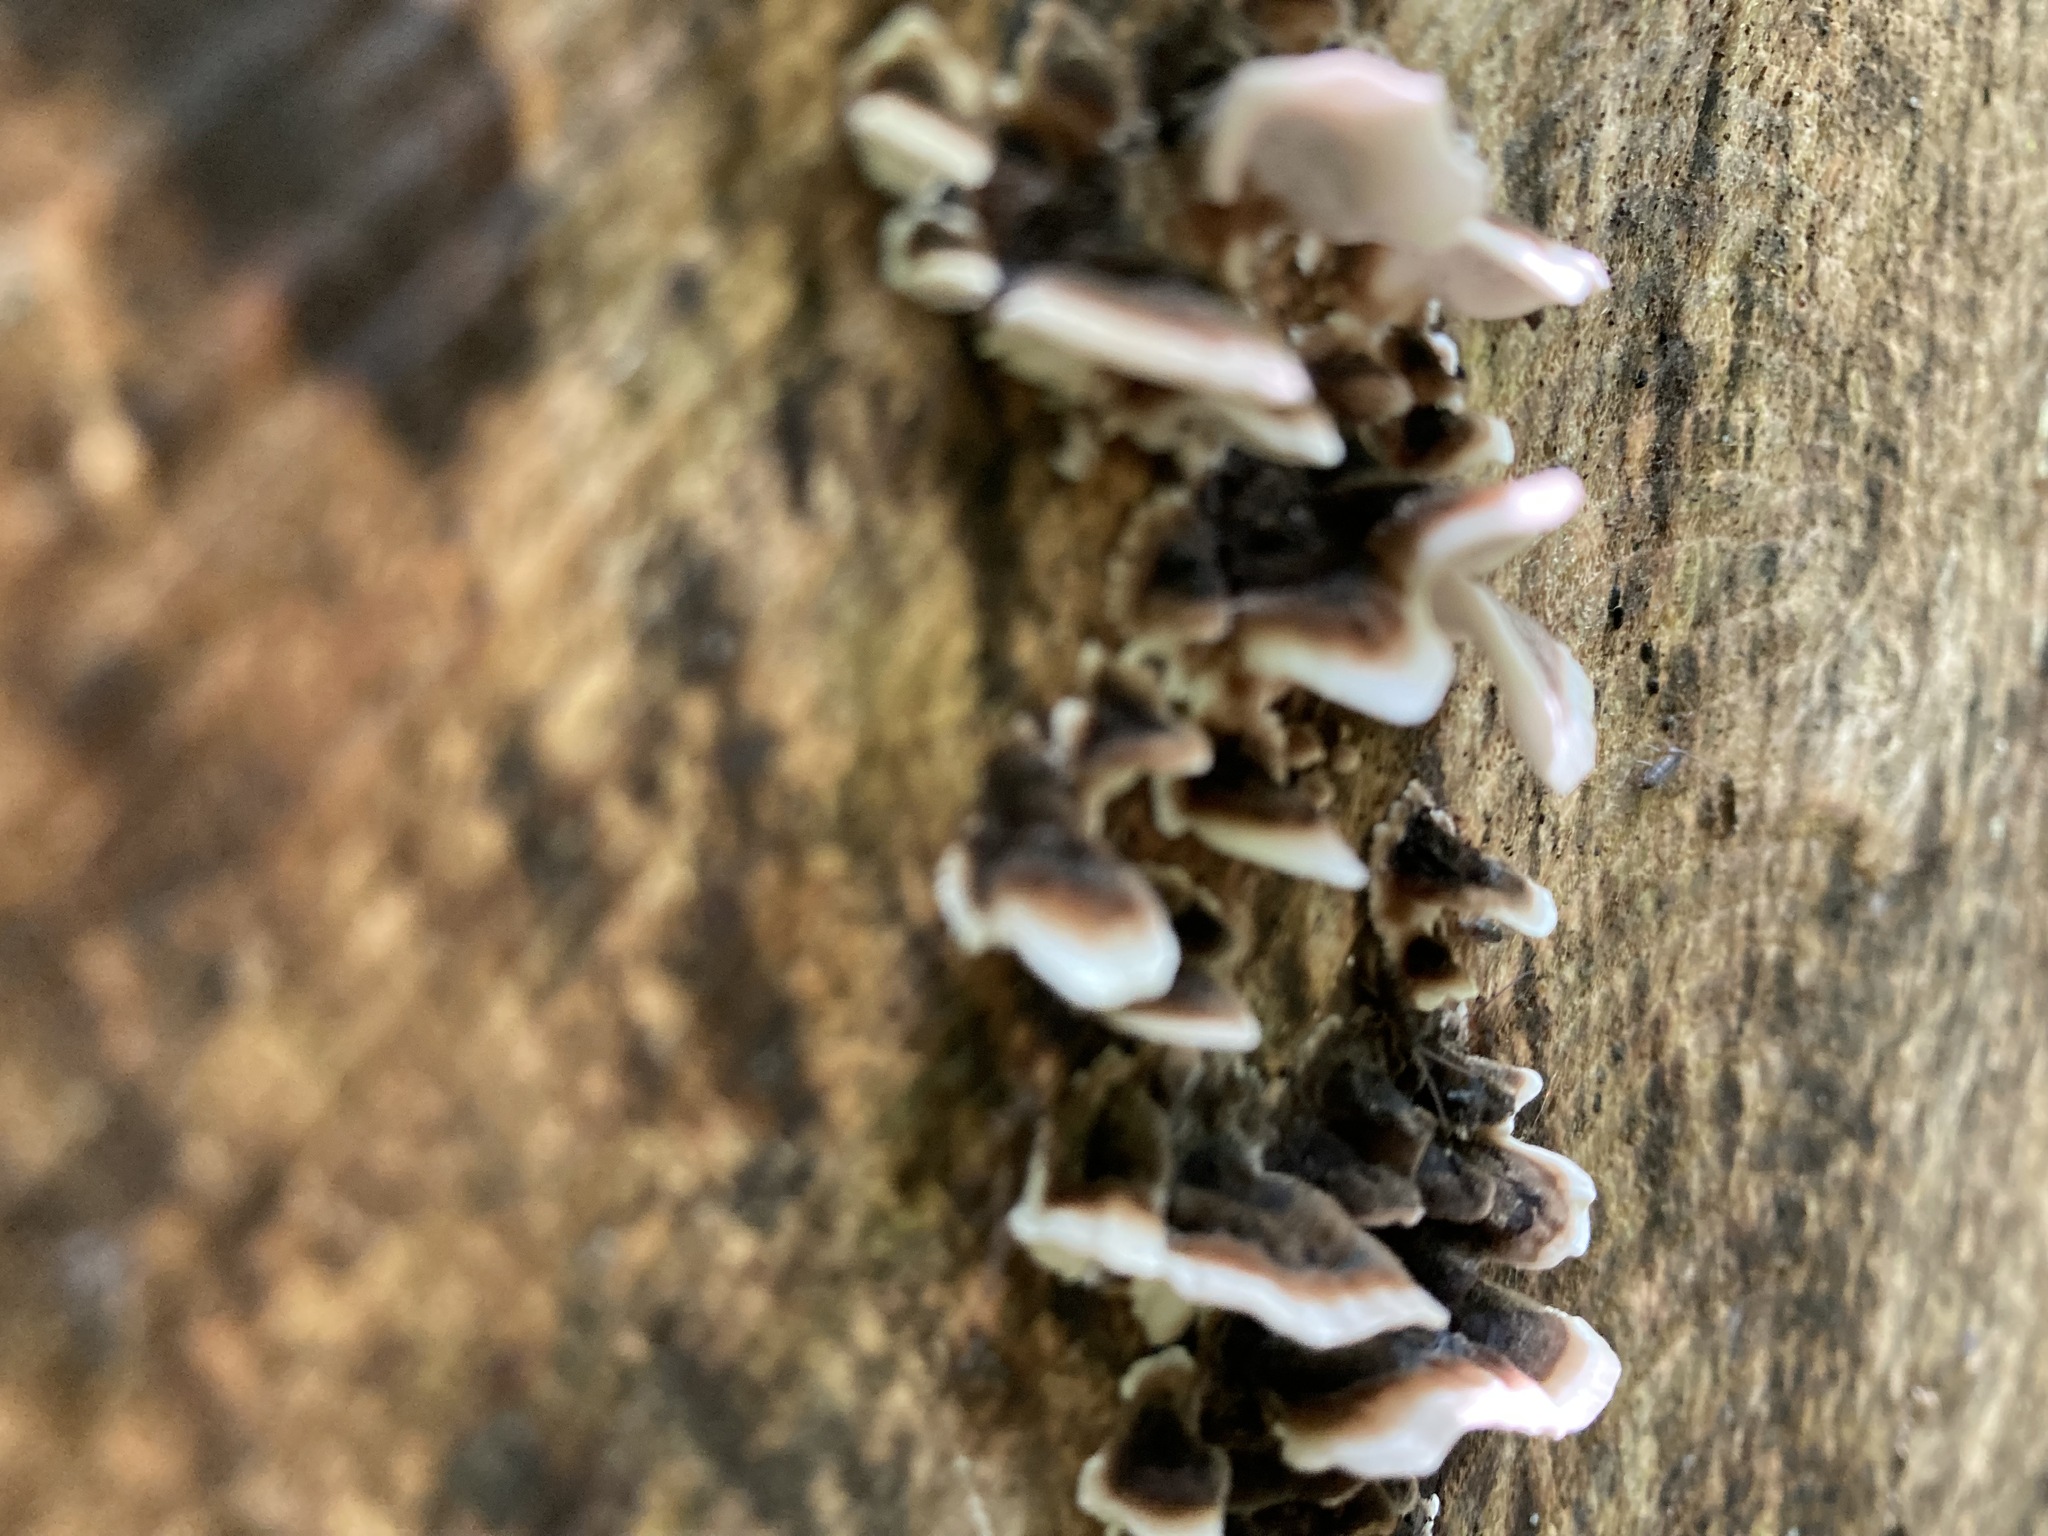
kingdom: Fungi
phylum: Basidiomycota
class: Agaricomycetes
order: Polyporales
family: Polyporaceae
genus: Trametes
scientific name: Trametes versicolor
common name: Turkeytail
